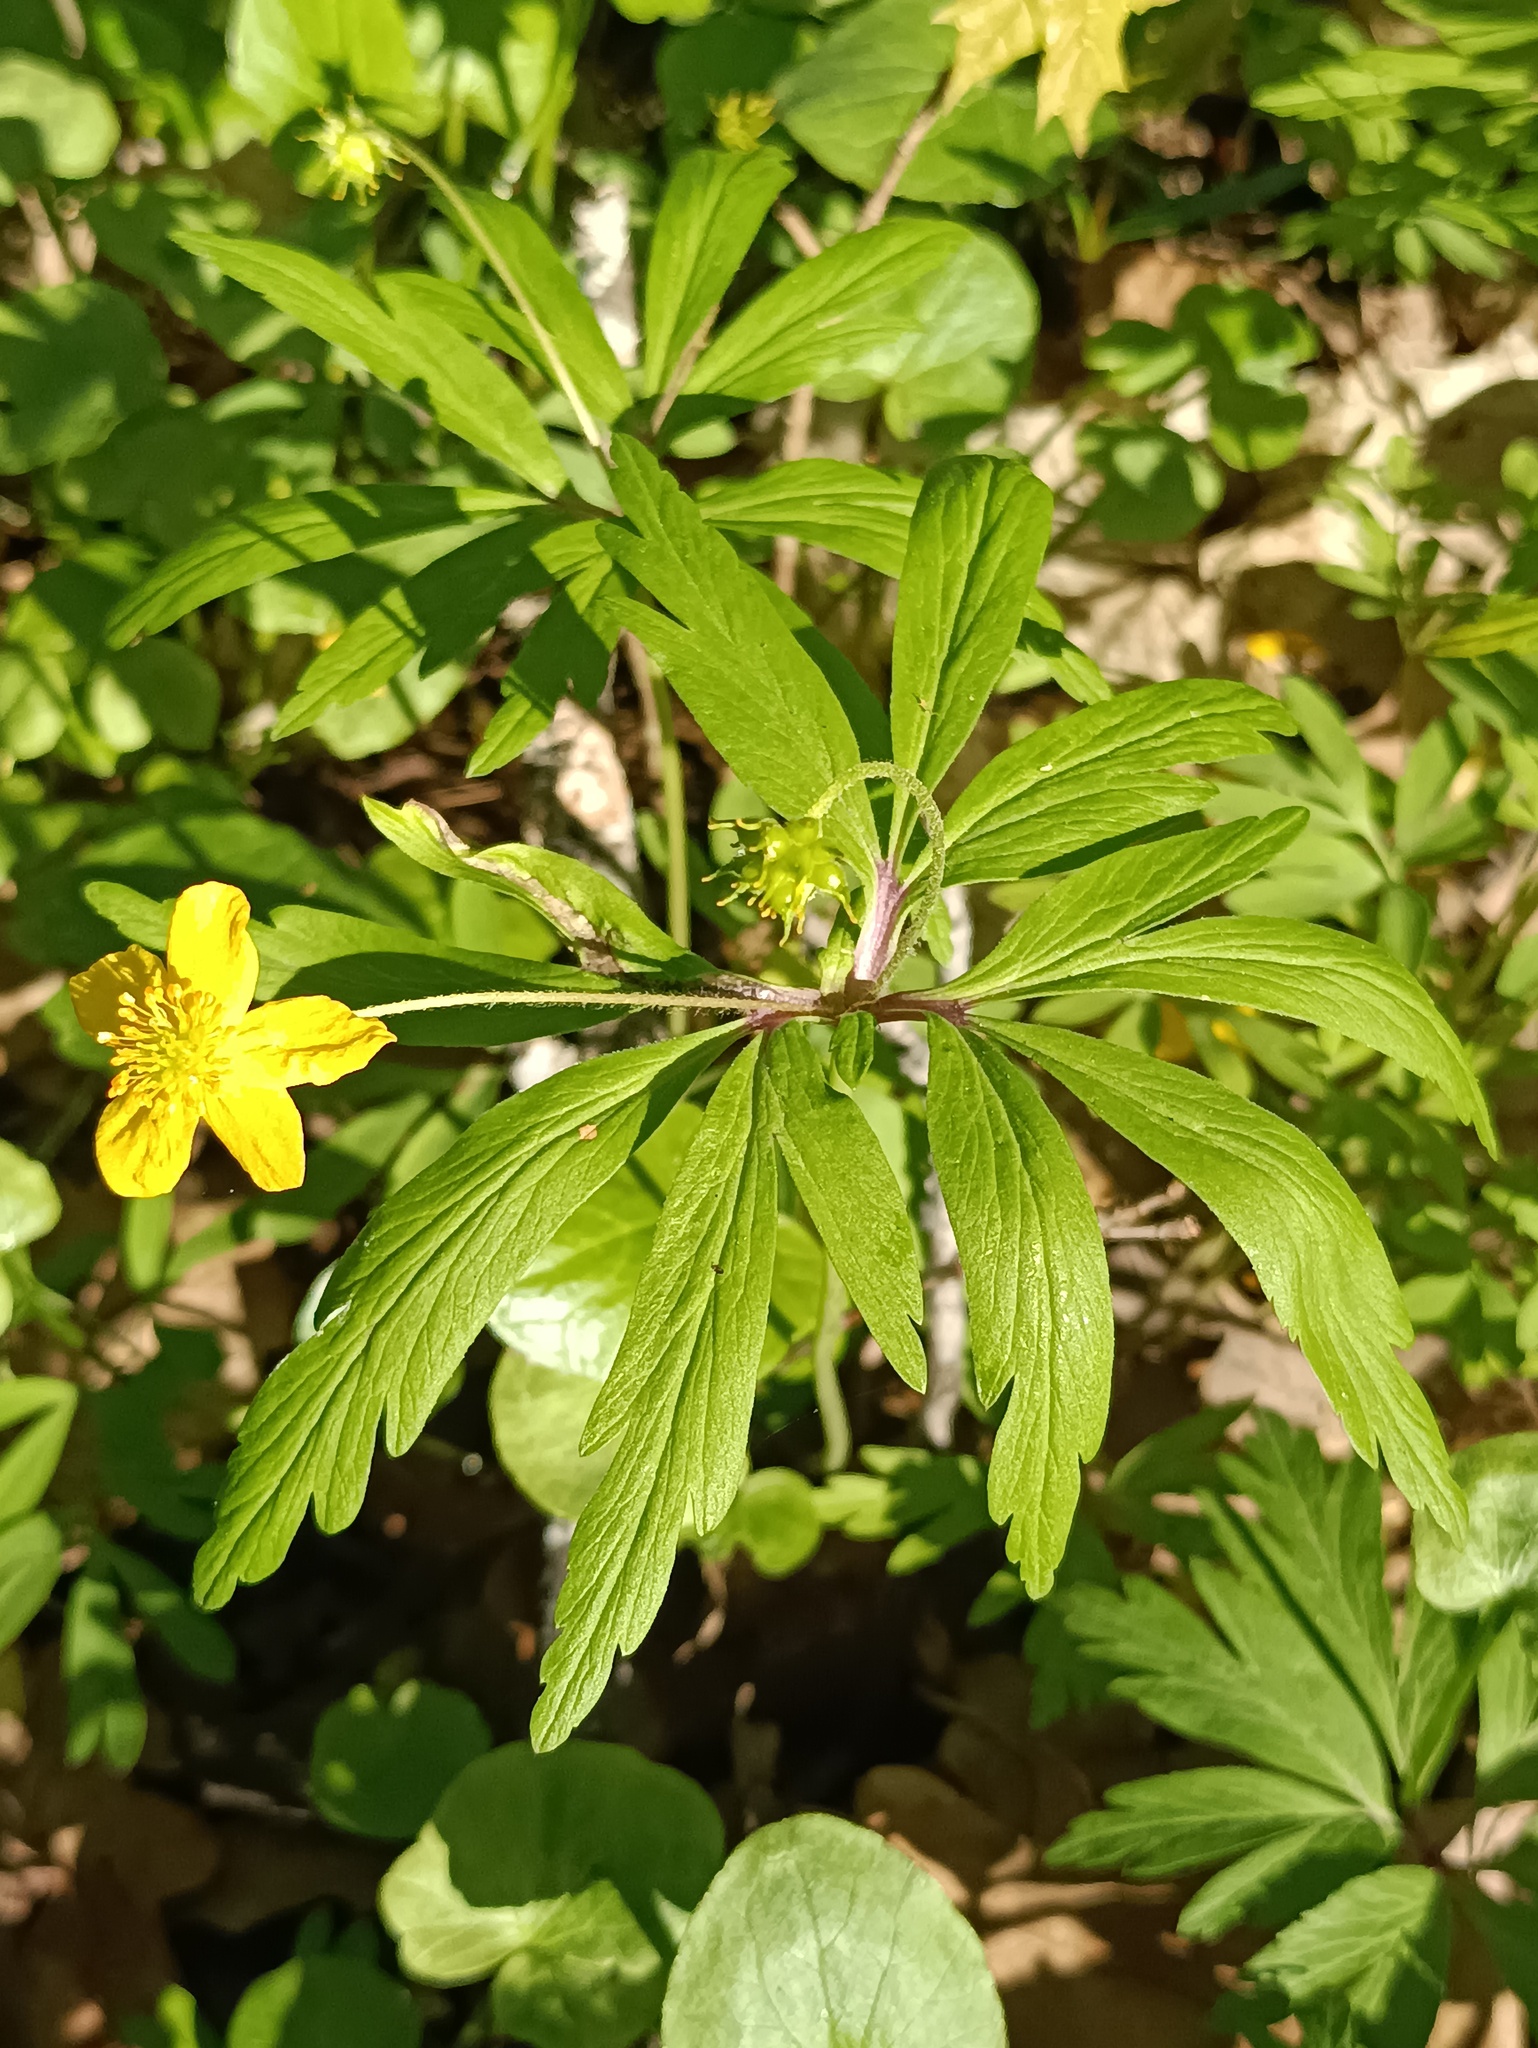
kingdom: Plantae
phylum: Tracheophyta
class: Magnoliopsida
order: Ranunculales
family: Ranunculaceae
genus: Anemone
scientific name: Anemone ranunculoides
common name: Yellow anemone
